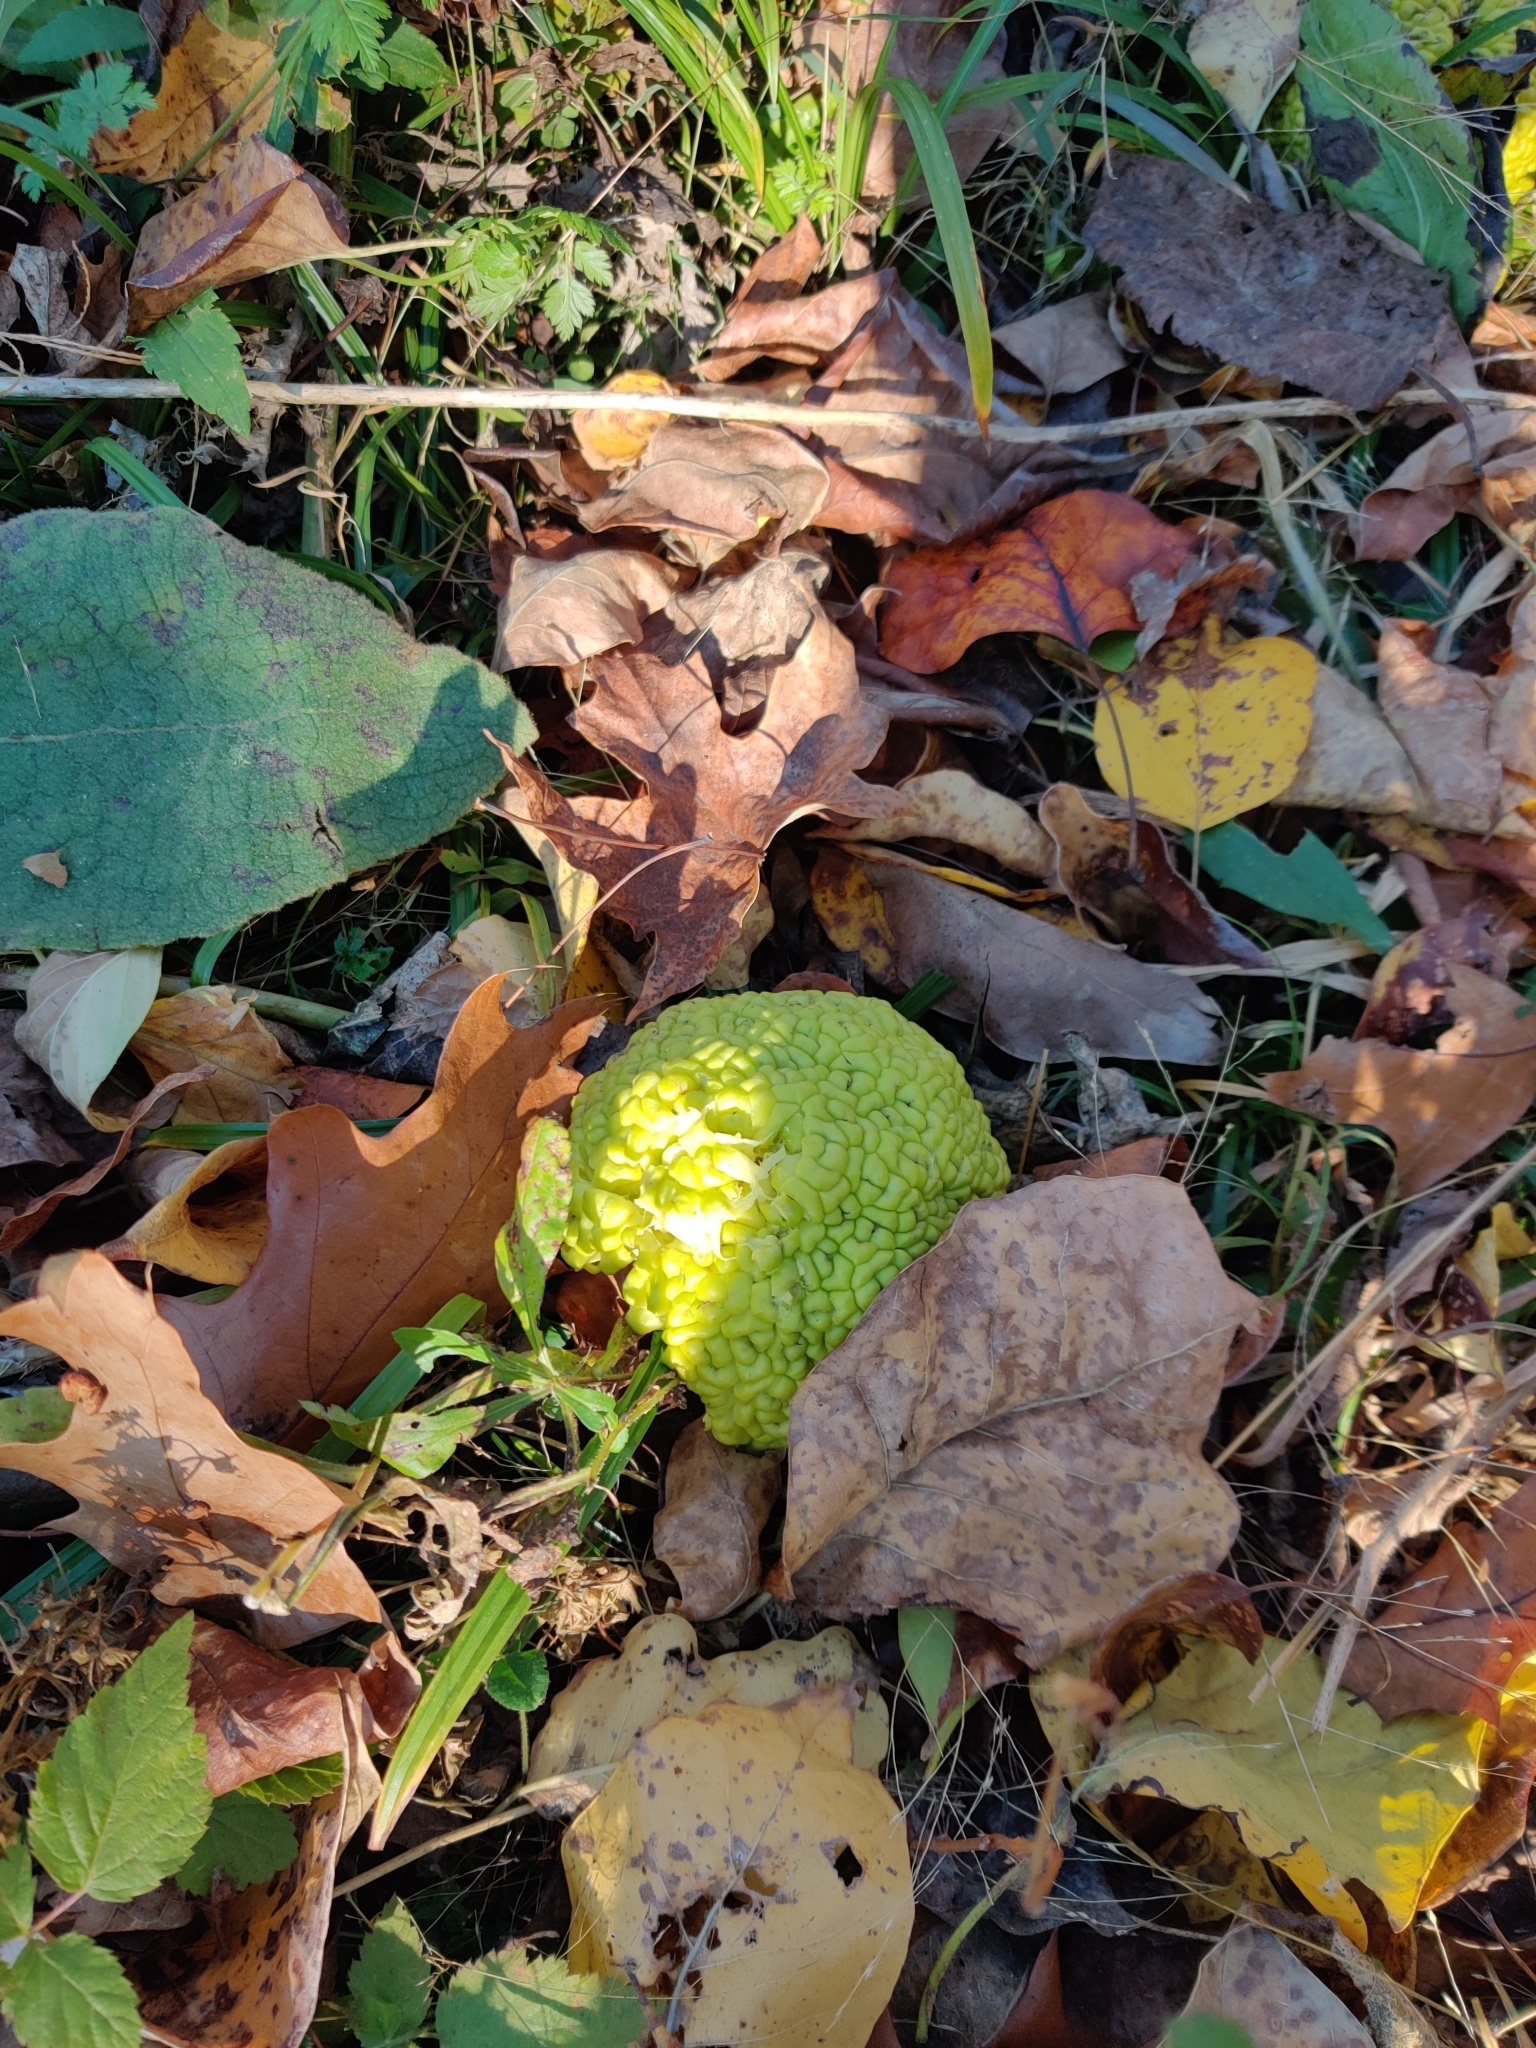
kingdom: Plantae
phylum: Tracheophyta
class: Magnoliopsida
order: Rosales
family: Moraceae
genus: Maclura
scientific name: Maclura pomifera
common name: Osage-orange
